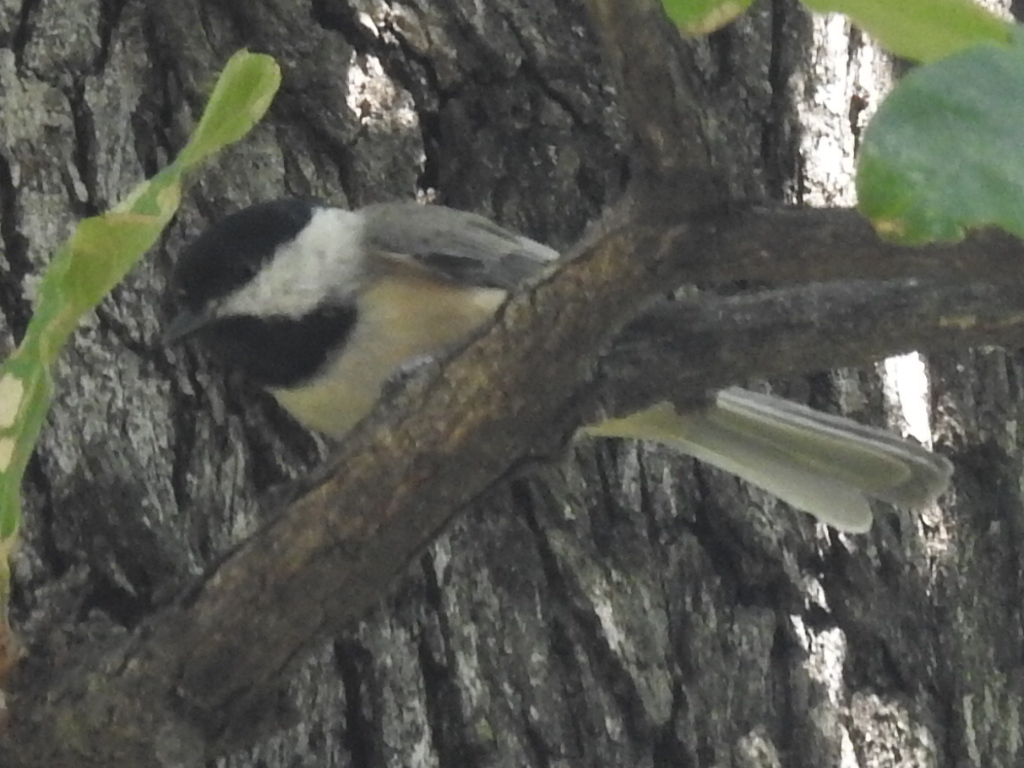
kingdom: Animalia
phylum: Chordata
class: Aves
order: Passeriformes
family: Paridae
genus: Poecile
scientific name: Poecile carolinensis
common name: Carolina chickadee
